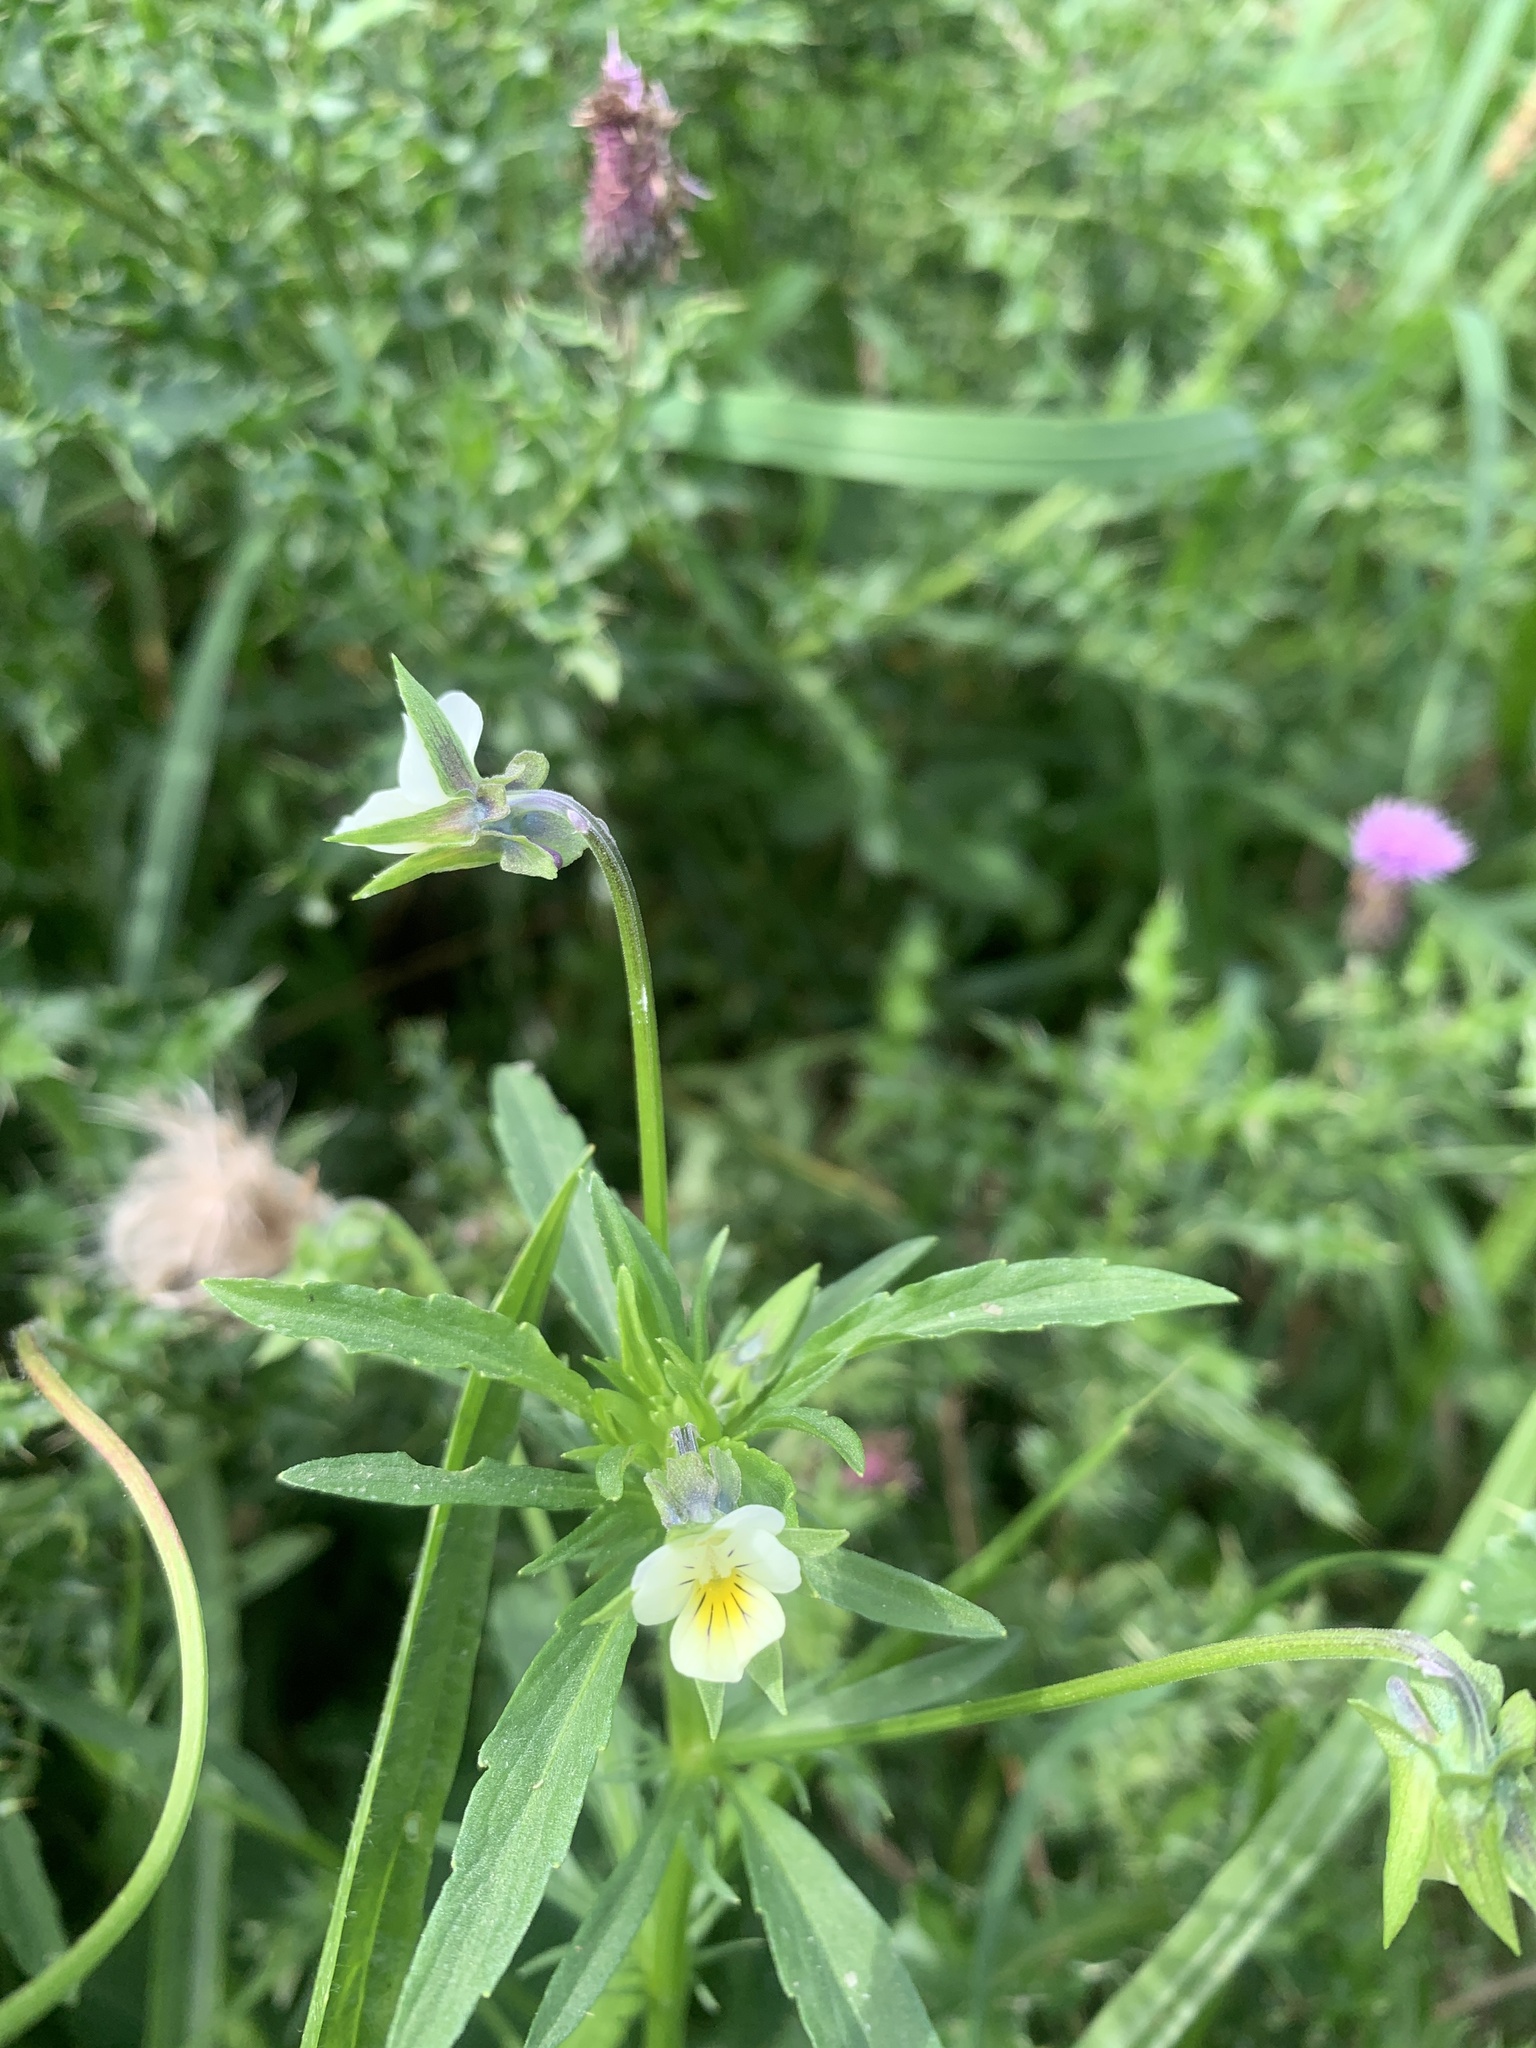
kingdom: Plantae
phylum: Tracheophyta
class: Magnoliopsida
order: Malpighiales
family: Violaceae
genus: Viola
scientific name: Viola arvensis
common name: Field pansy
